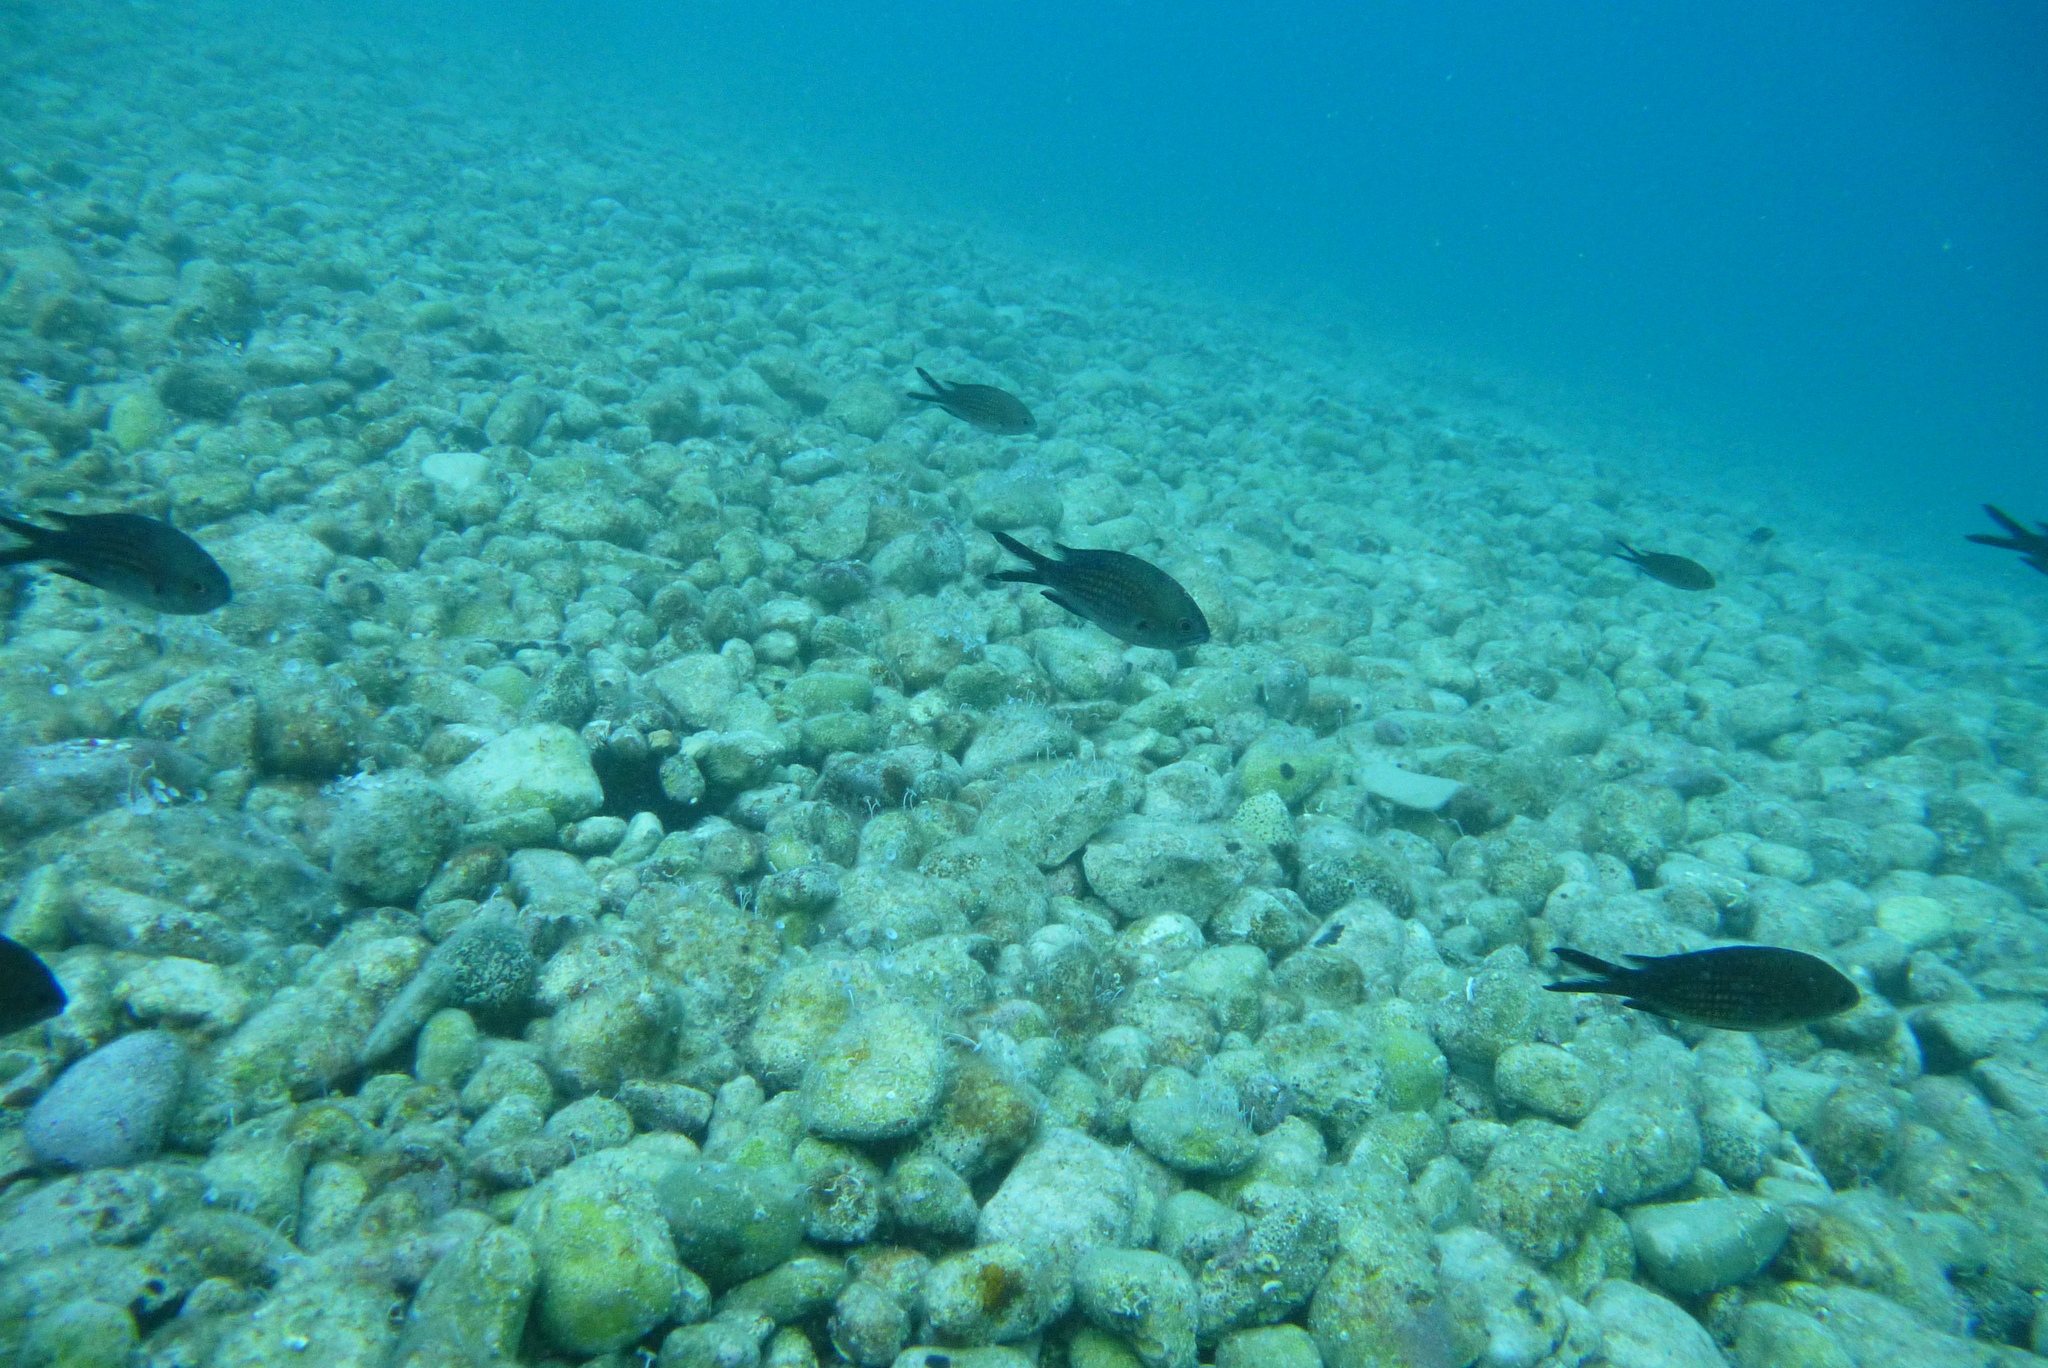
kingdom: Animalia
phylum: Chordata
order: Perciformes
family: Pomacentridae
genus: Chromis
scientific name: Chromis chromis
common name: Damselfish
